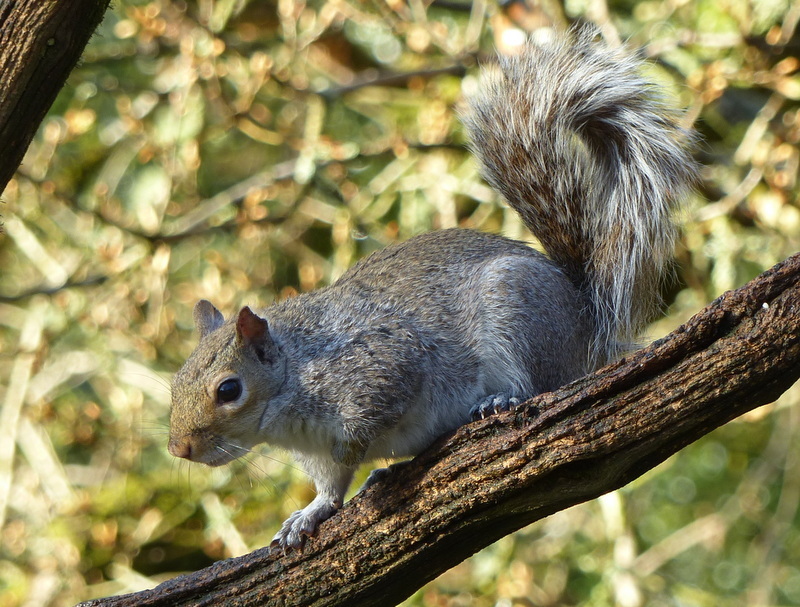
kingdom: Animalia
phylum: Chordata
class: Mammalia
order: Rodentia
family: Sciuridae
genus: Sciurus
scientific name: Sciurus carolinensis
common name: Eastern gray squirrel
